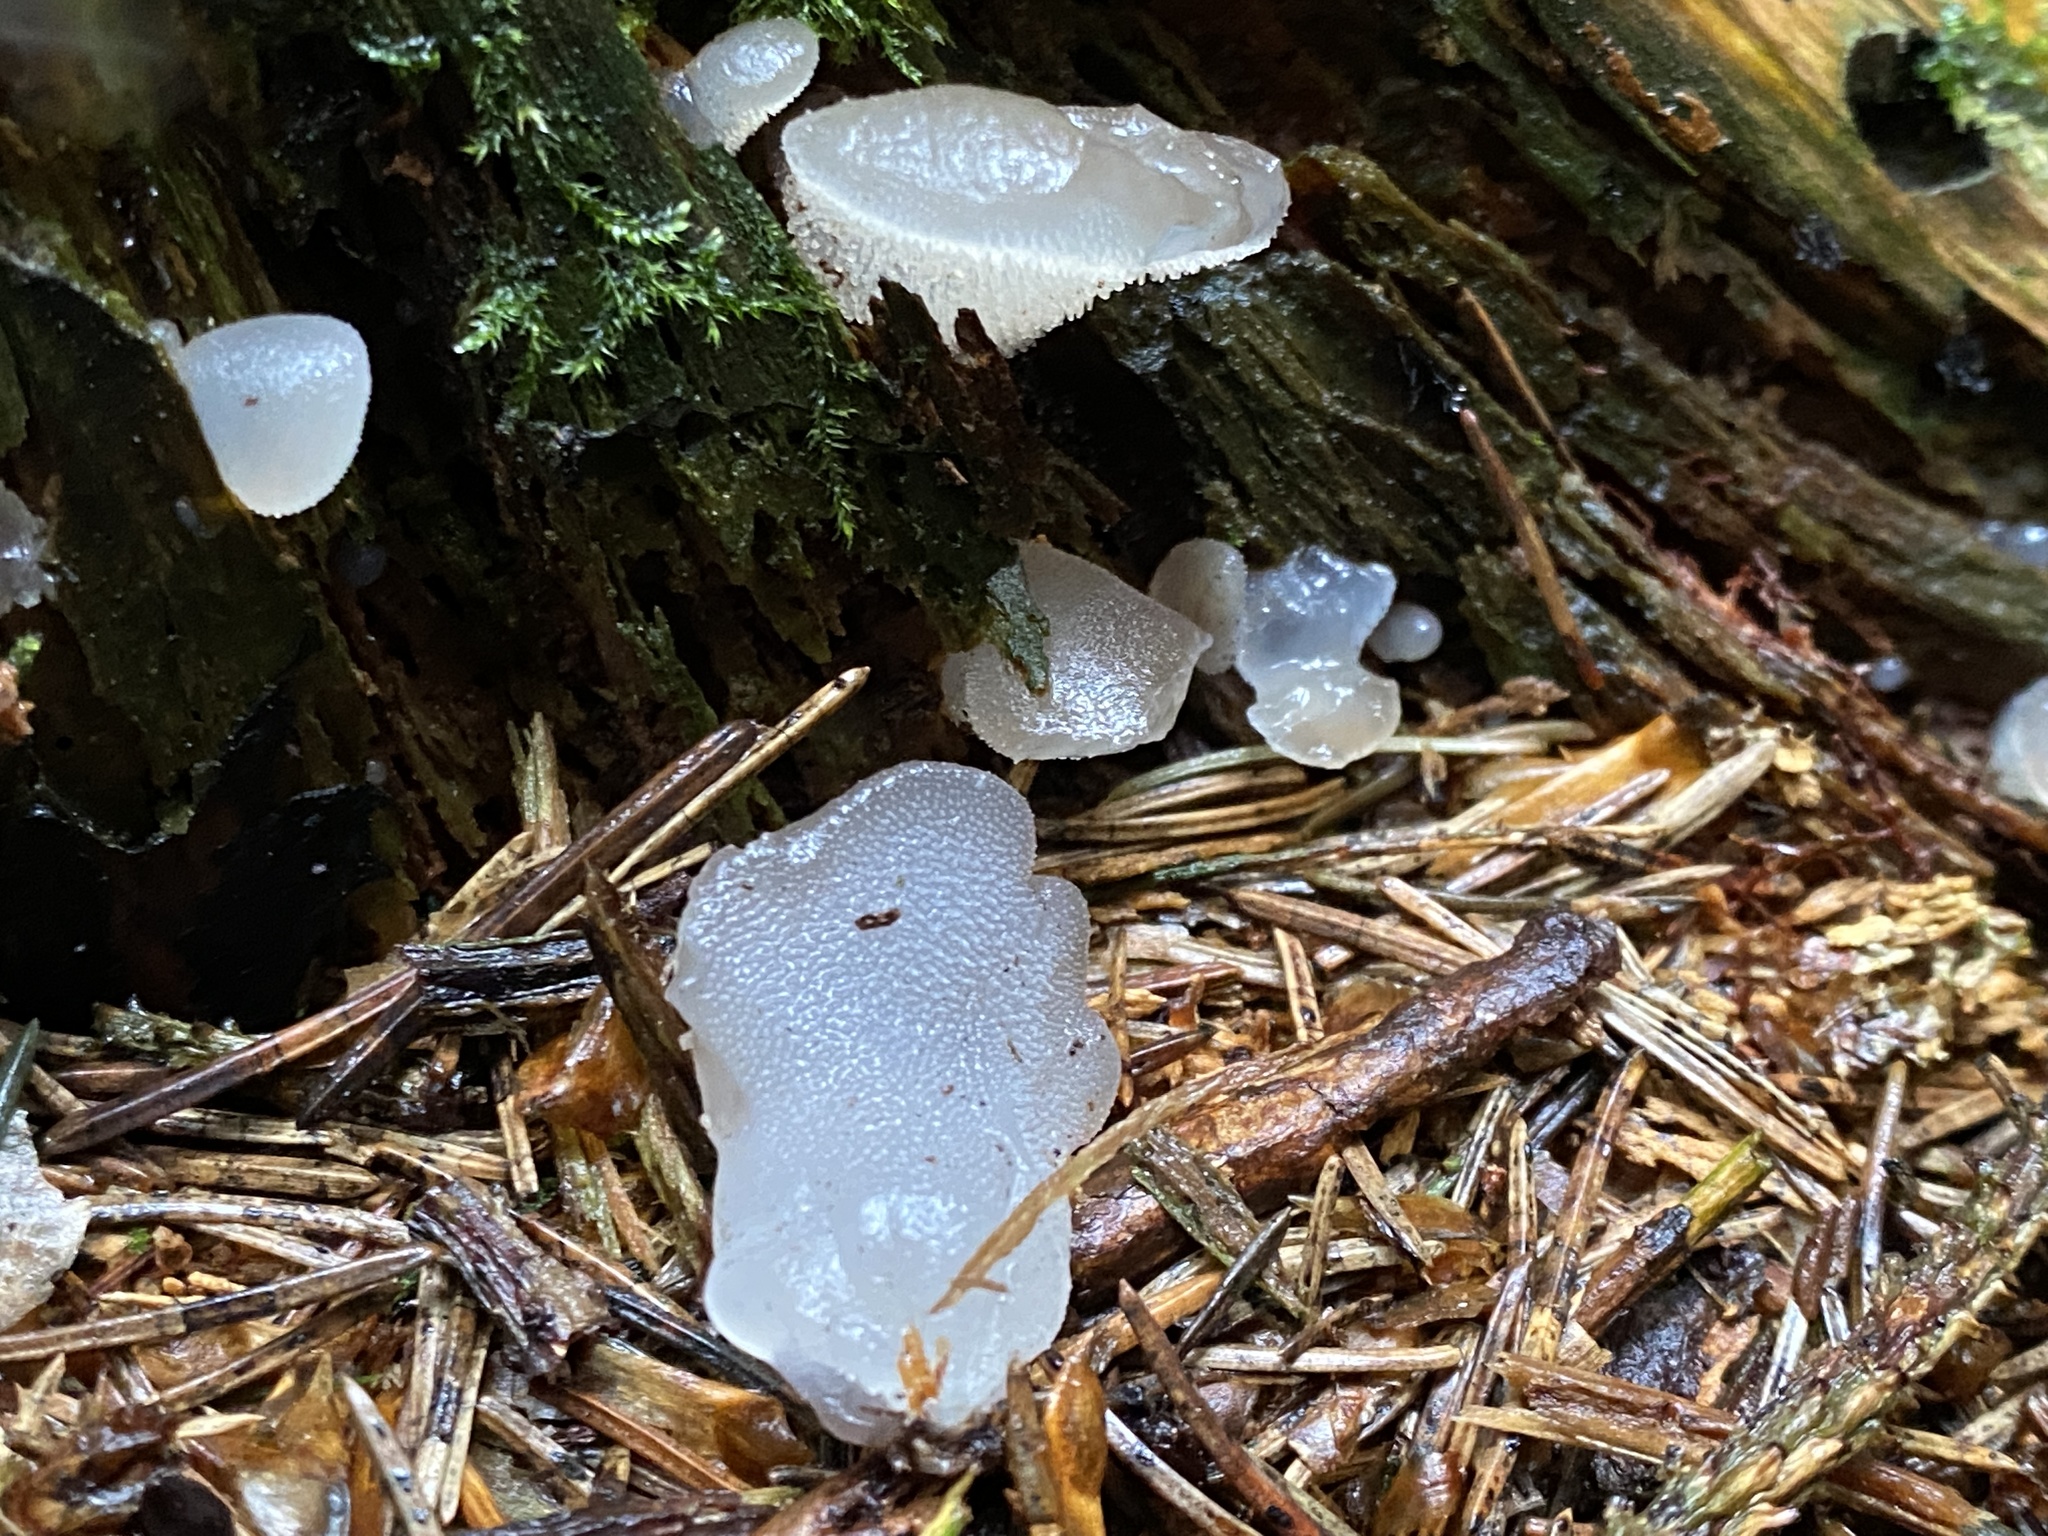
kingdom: Fungi
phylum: Basidiomycota
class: Agaricomycetes
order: Auriculariales
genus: Pseudohydnum
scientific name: Pseudohydnum gelatinosum
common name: Jelly tongue
